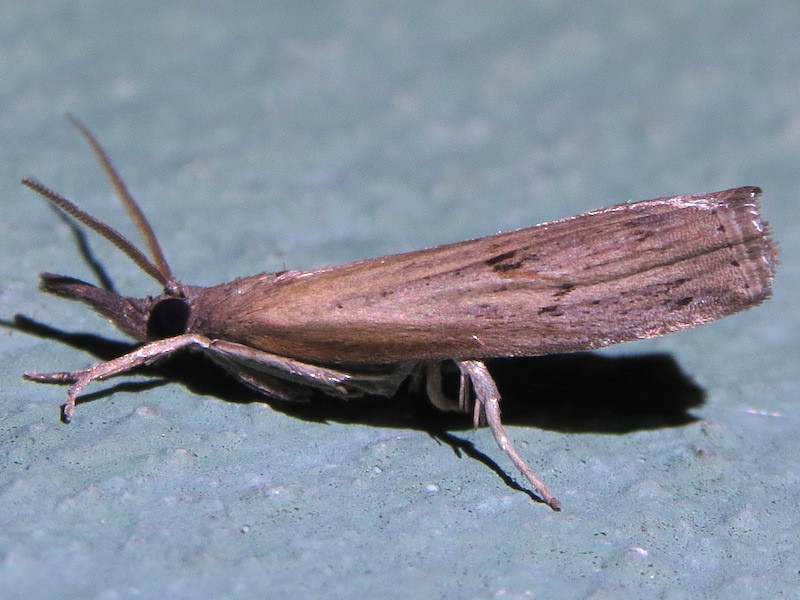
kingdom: Animalia
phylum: Arthropoda
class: Insecta
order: Lepidoptera
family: Crambidae
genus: Fissicrambus
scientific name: Fissicrambus mutabilis
